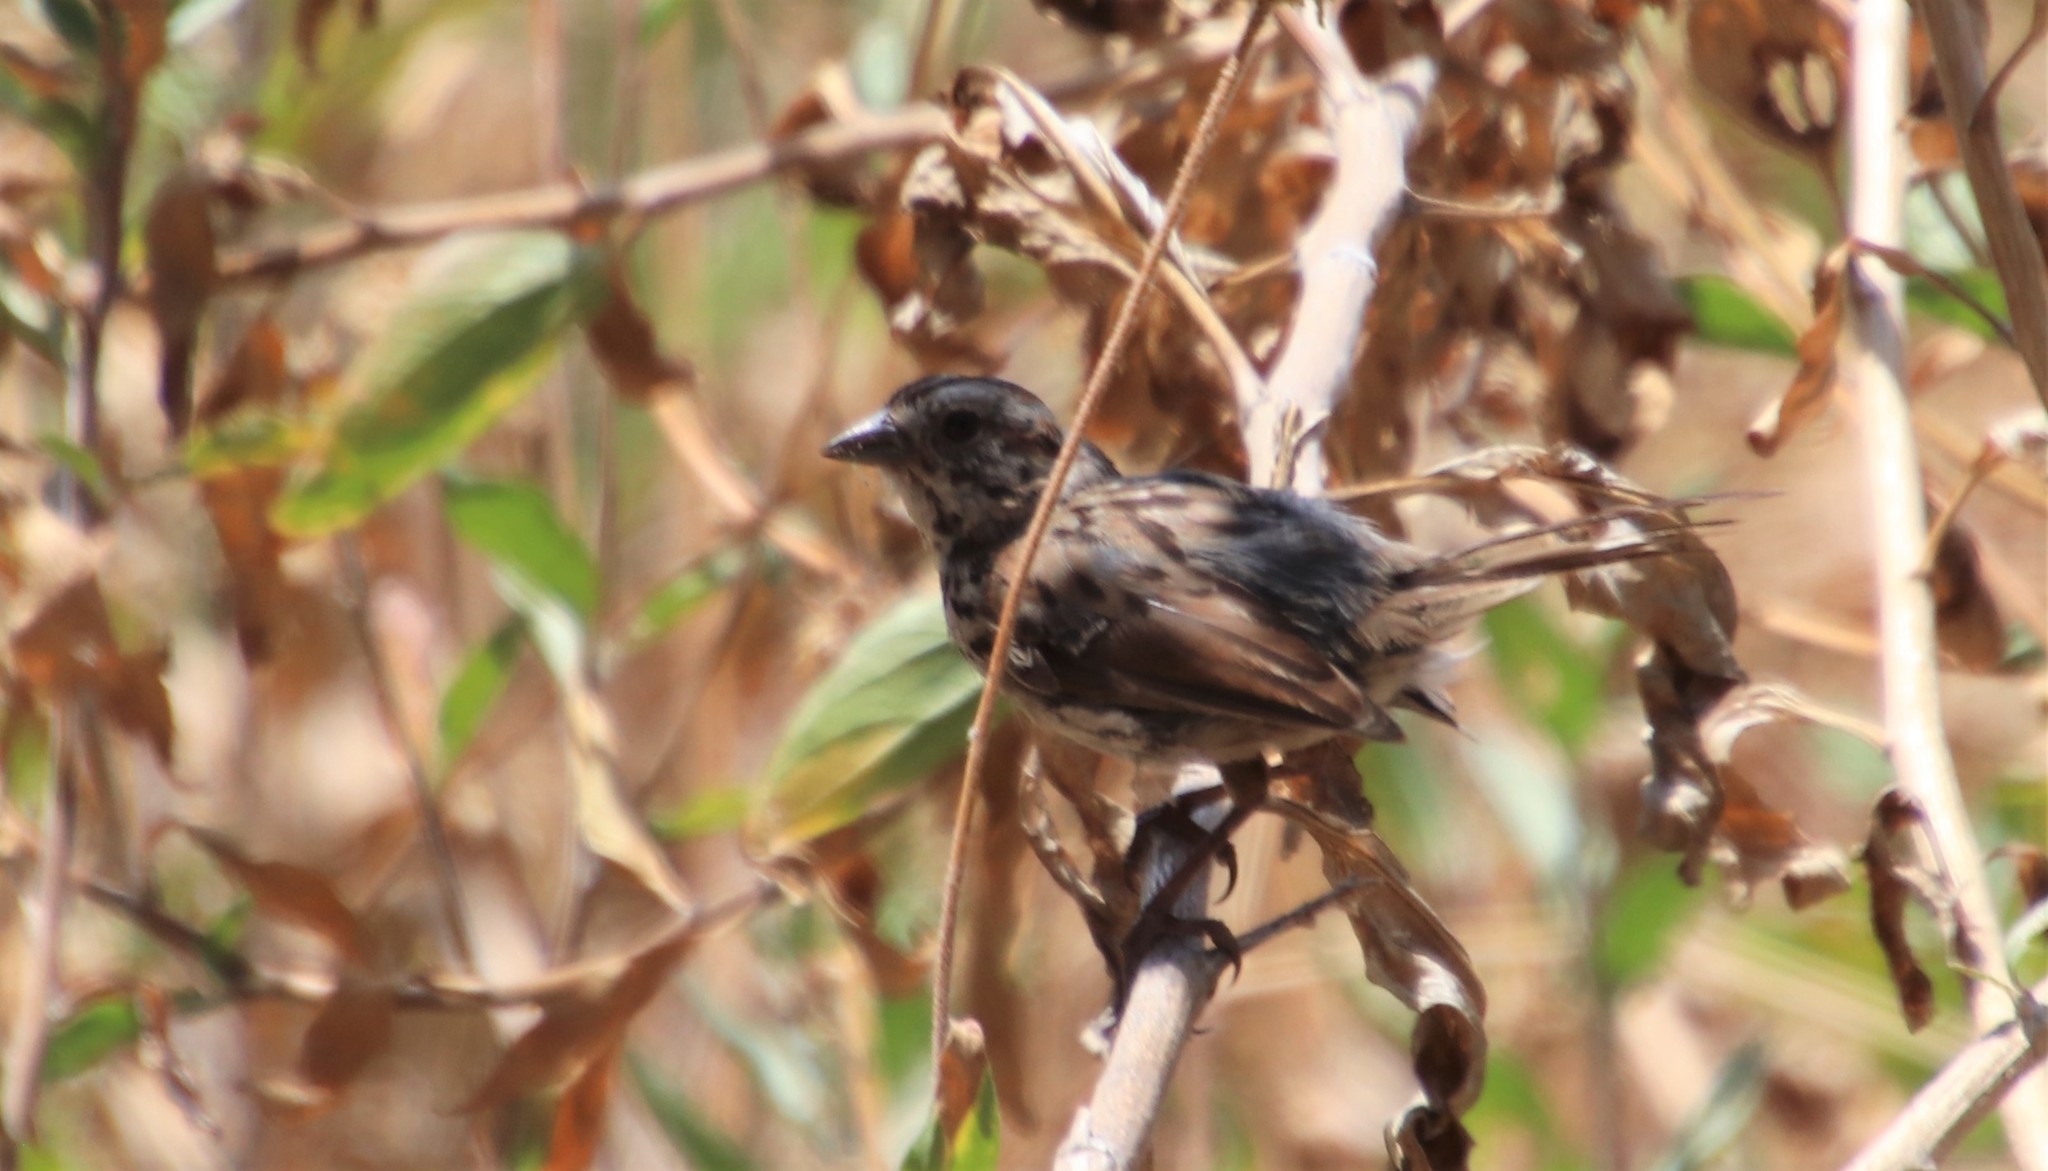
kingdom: Animalia
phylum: Chordata
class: Aves
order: Passeriformes
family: Passerellidae
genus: Melospiza
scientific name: Melospiza melodia
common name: Song sparrow
